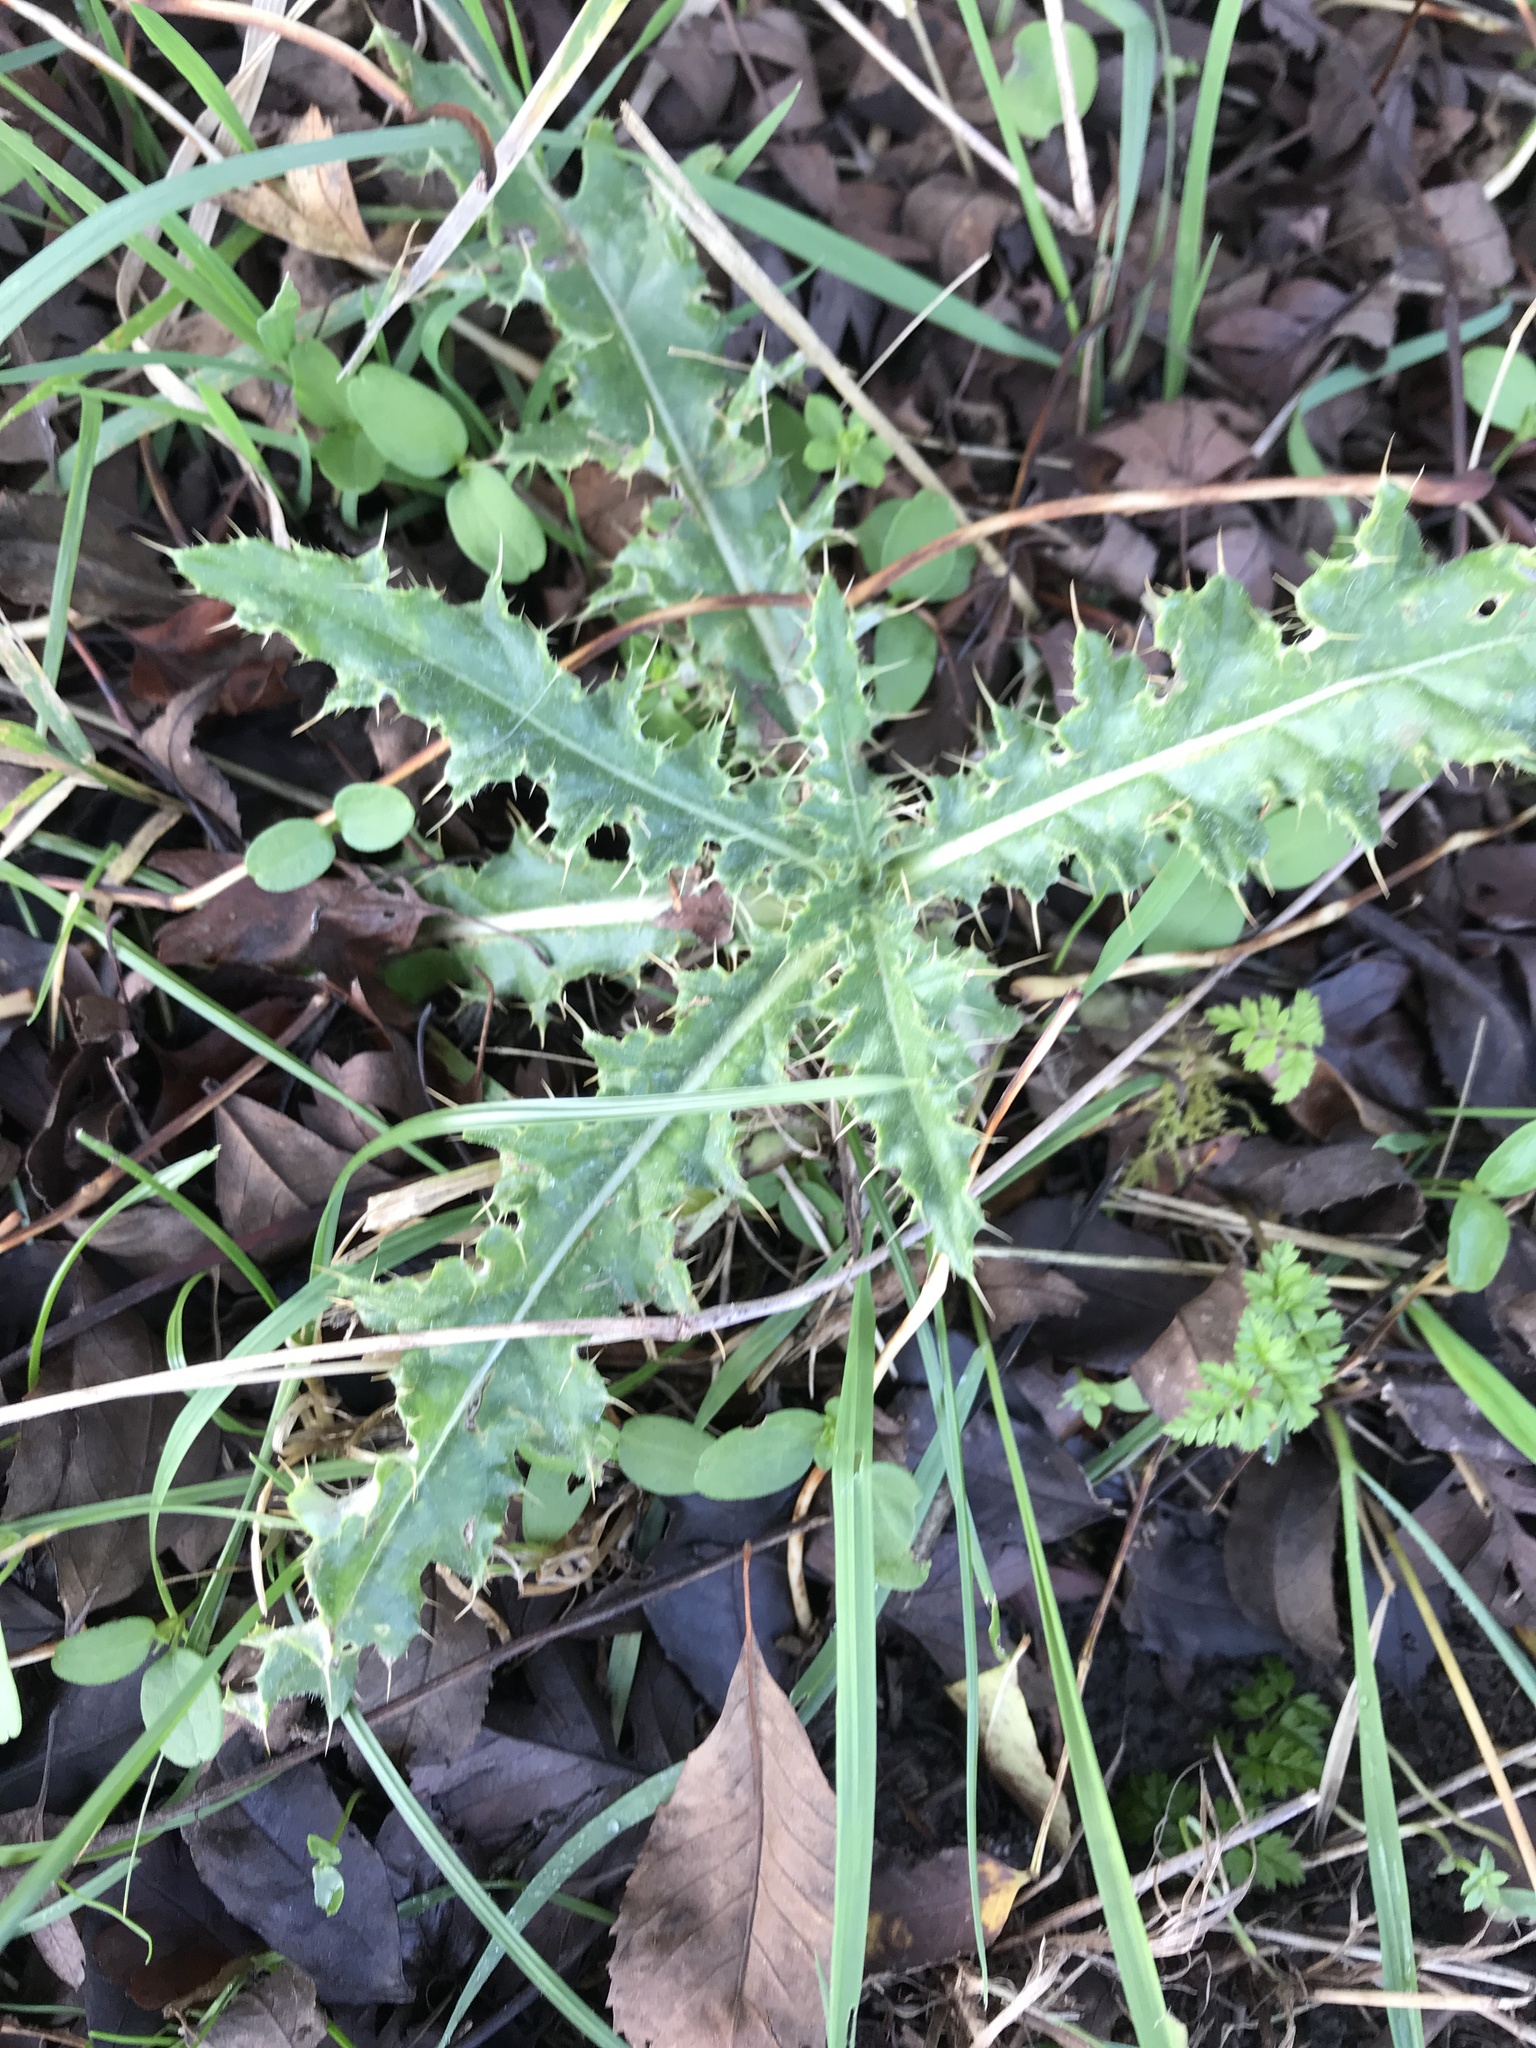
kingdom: Plantae
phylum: Tracheophyta
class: Magnoliopsida
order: Asterales
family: Asteraceae
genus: Cirsium
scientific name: Cirsium arvense
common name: Creeping thistle
